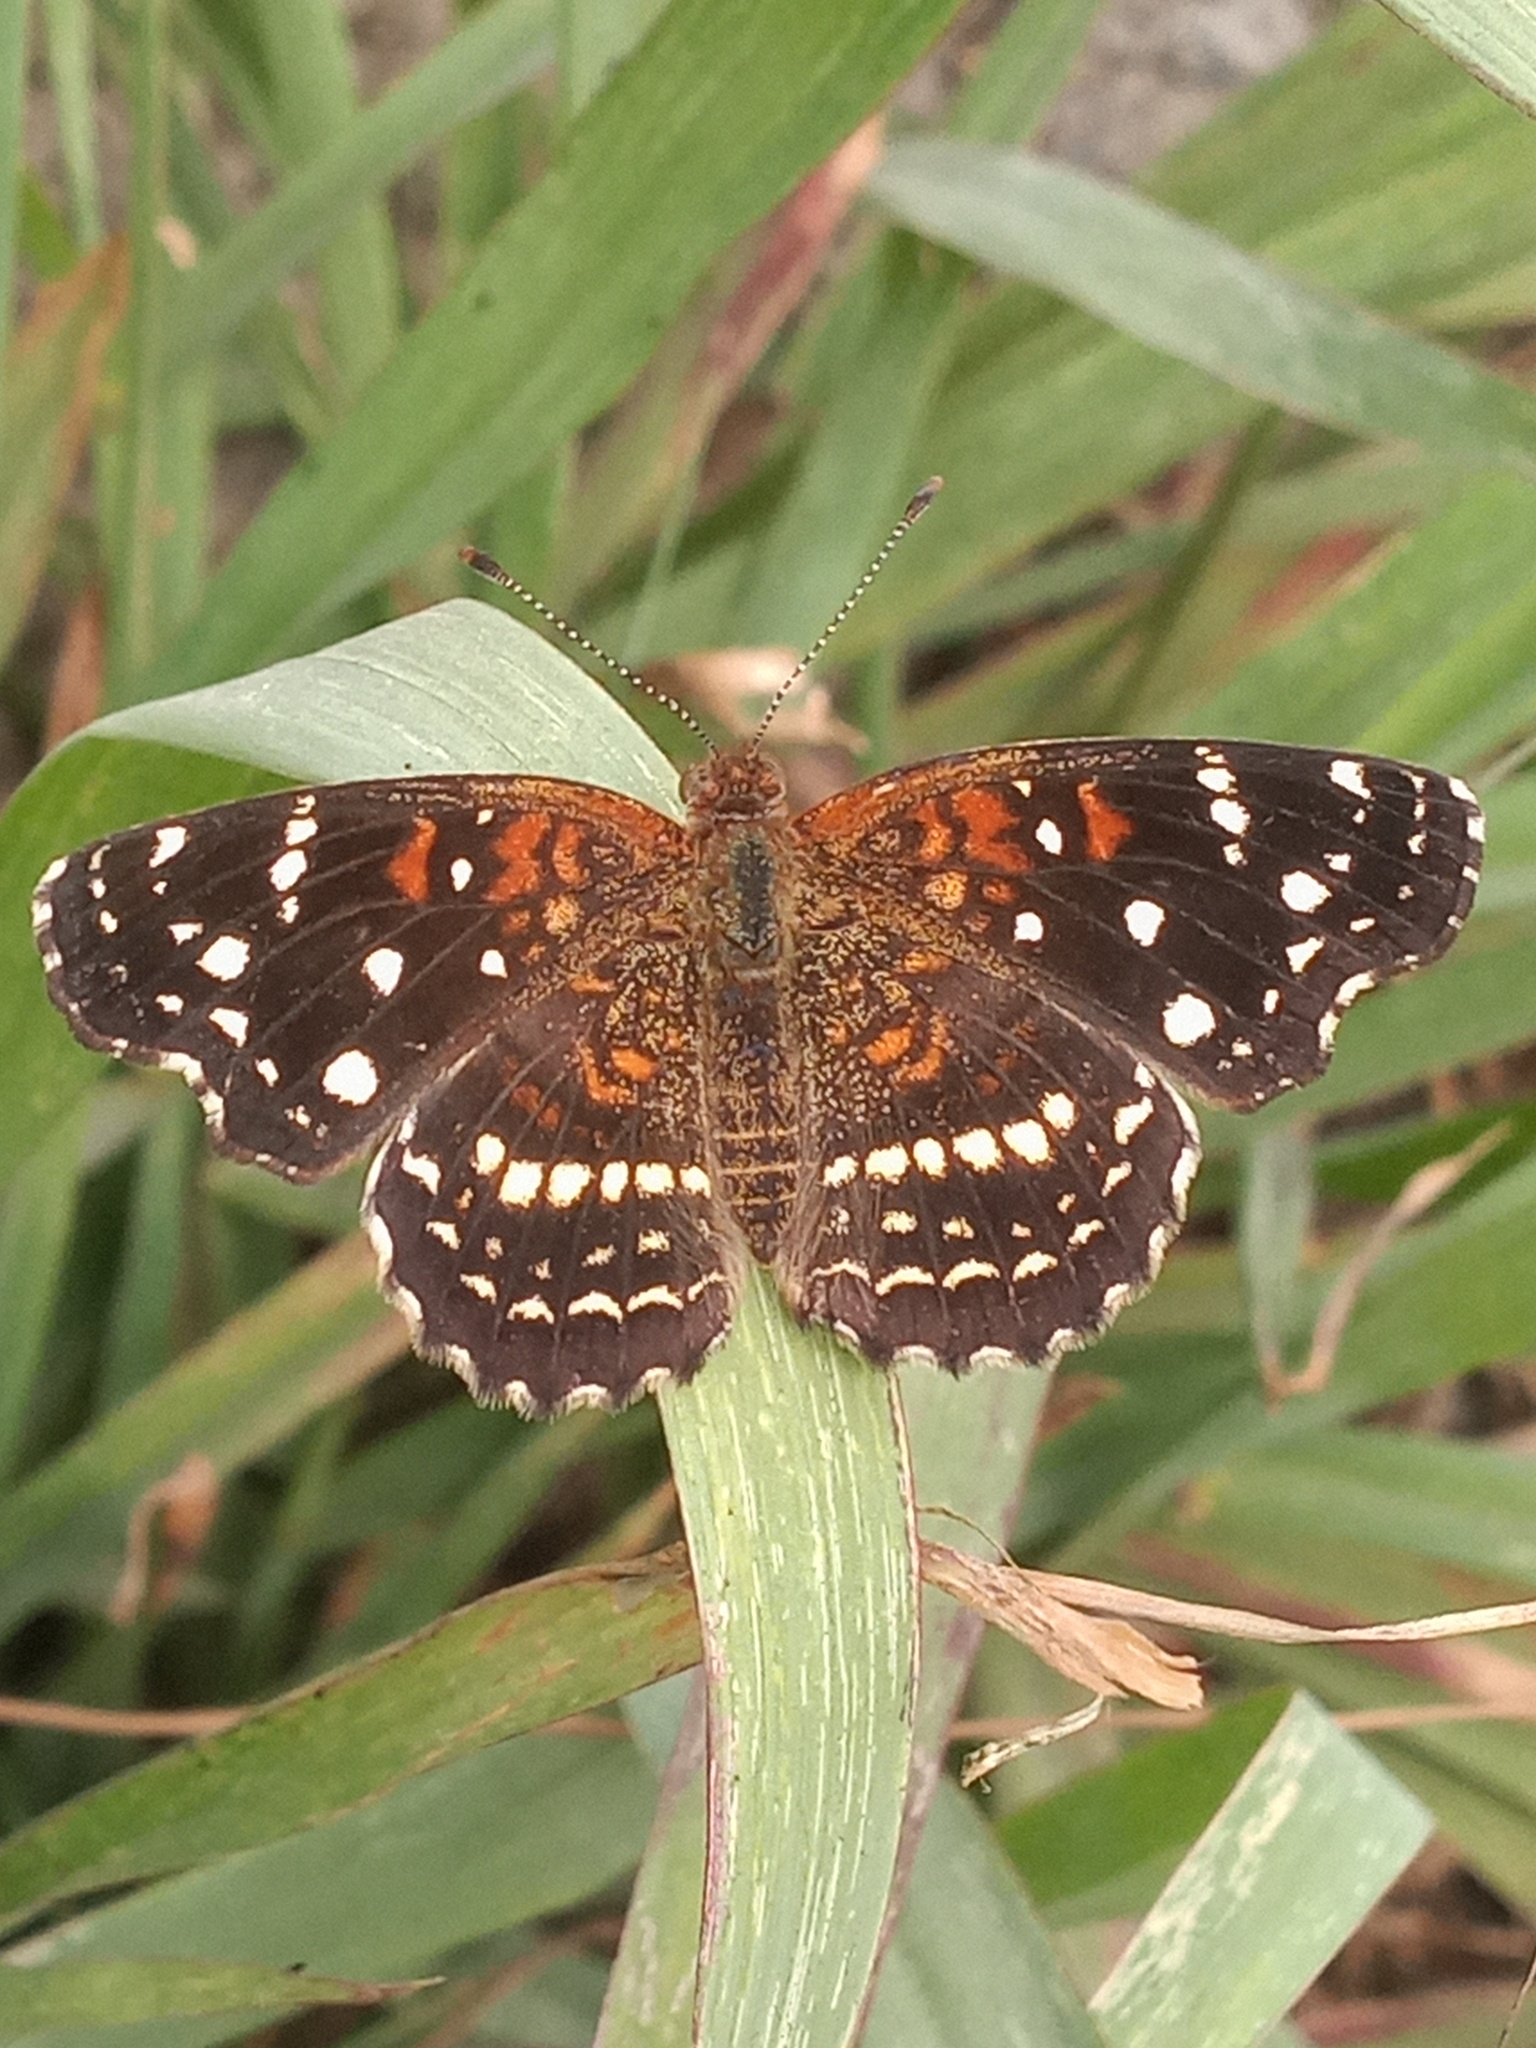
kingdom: Animalia
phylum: Arthropoda
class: Insecta
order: Lepidoptera
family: Nymphalidae
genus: Anthanassa
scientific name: Anthanassa texana
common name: Texan crescent
